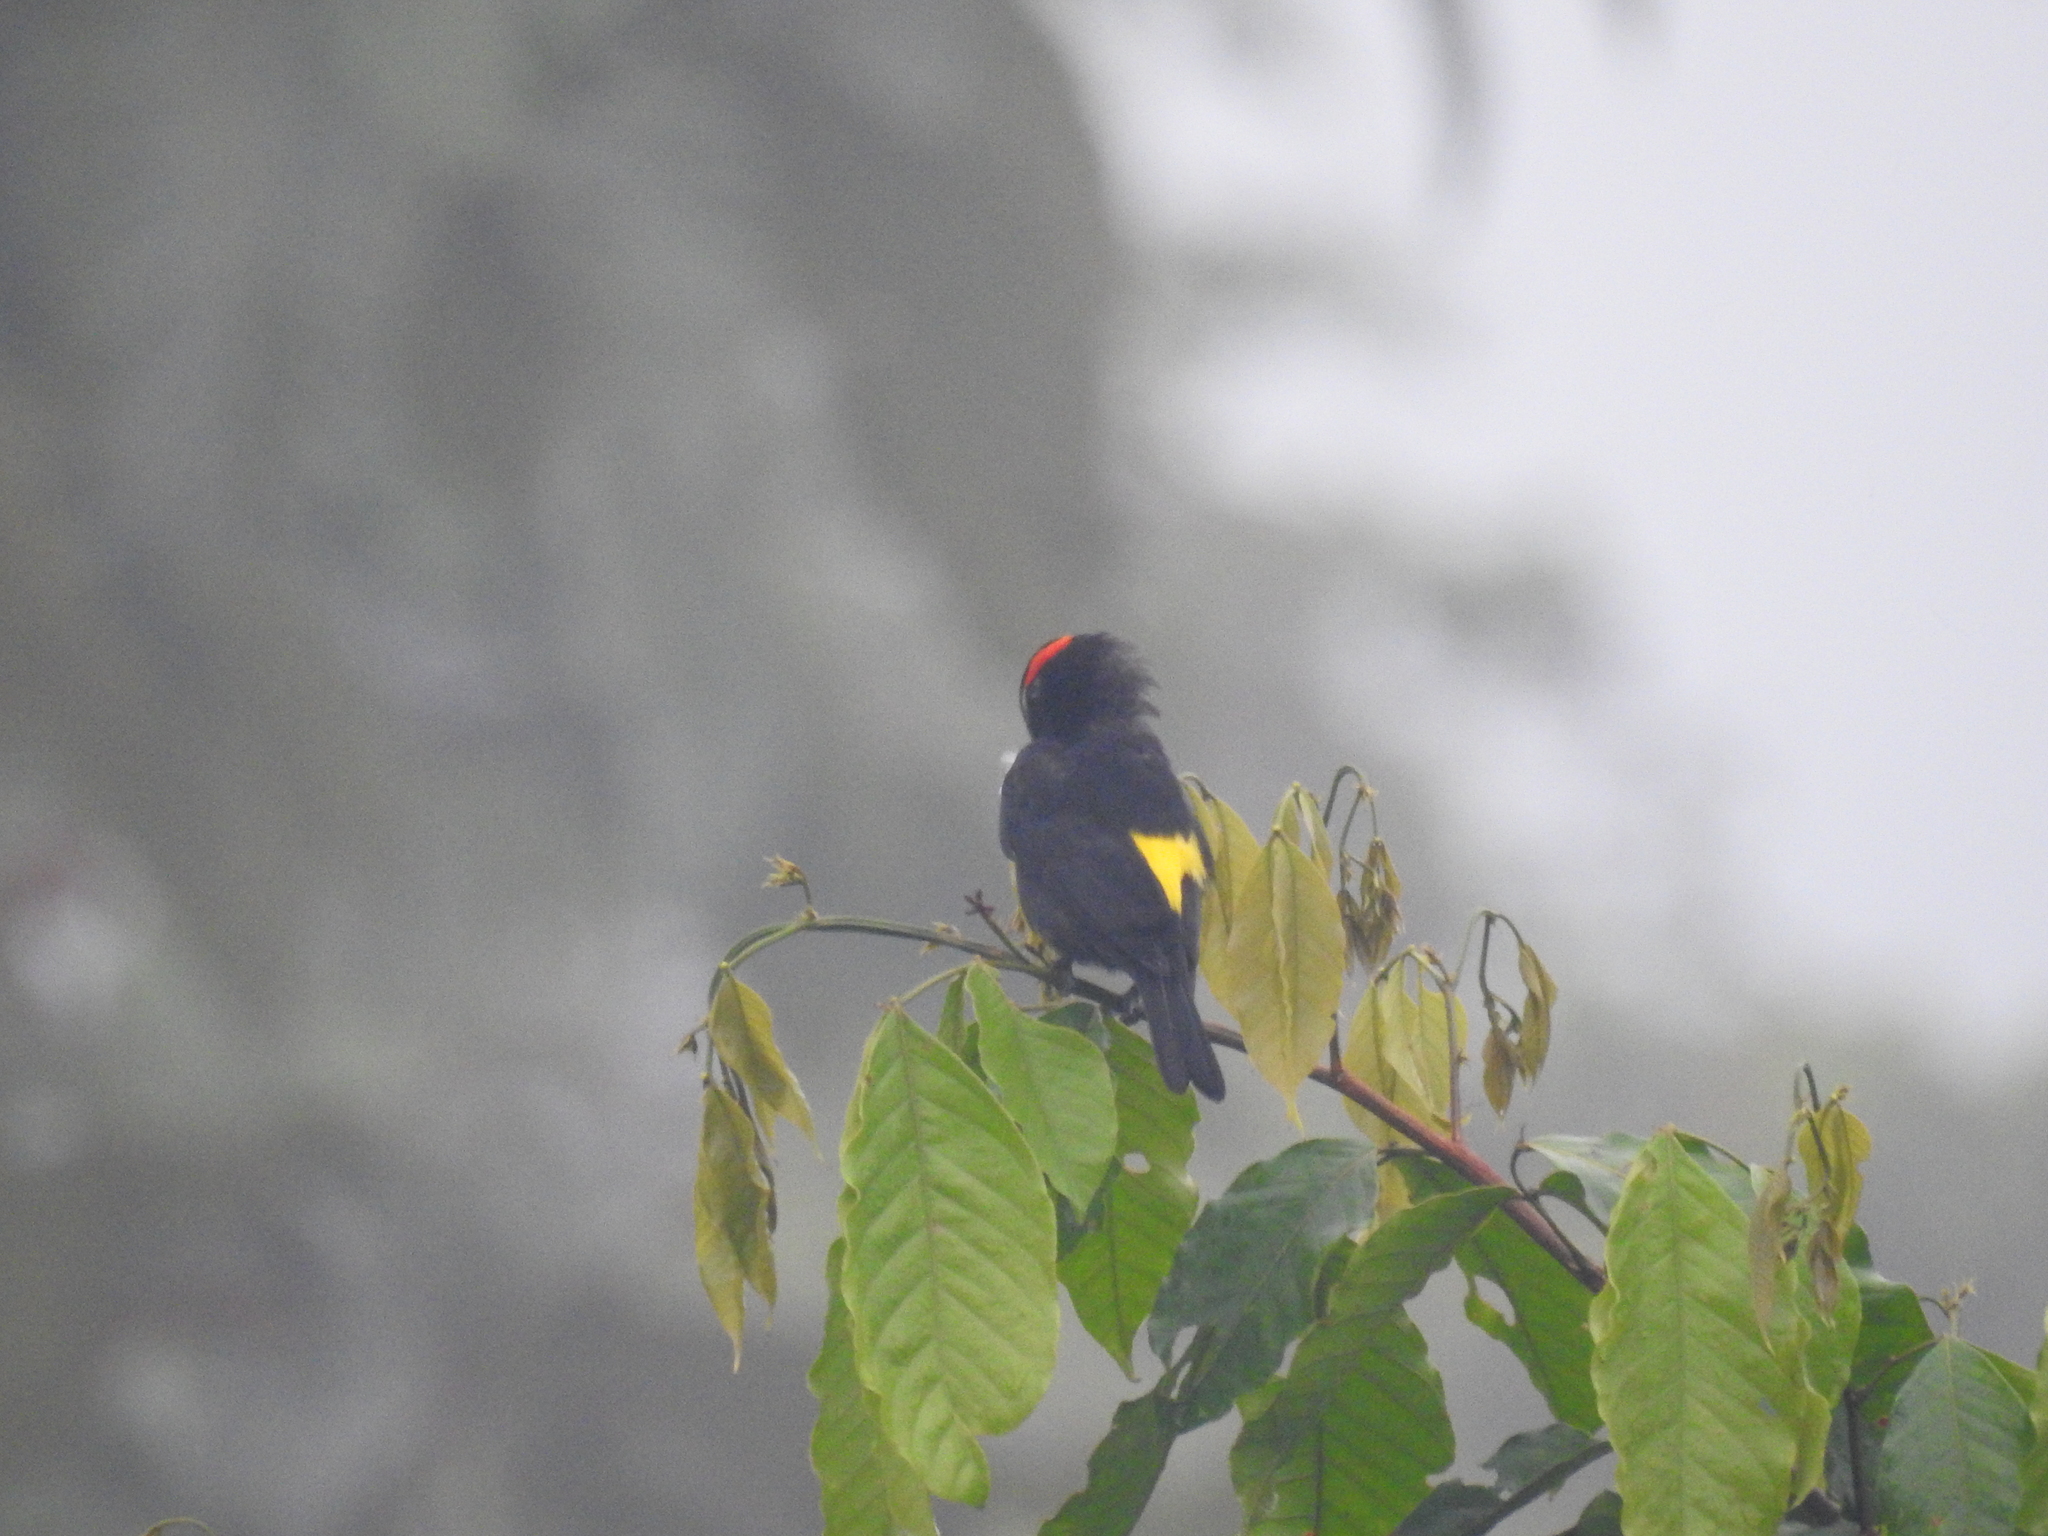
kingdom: Animalia
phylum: Chordata
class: Aves
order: Passeriformes
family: Thraupidae
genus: Heterospingus
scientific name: Heterospingus xanthopygius
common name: Scarlet-browed tanager
